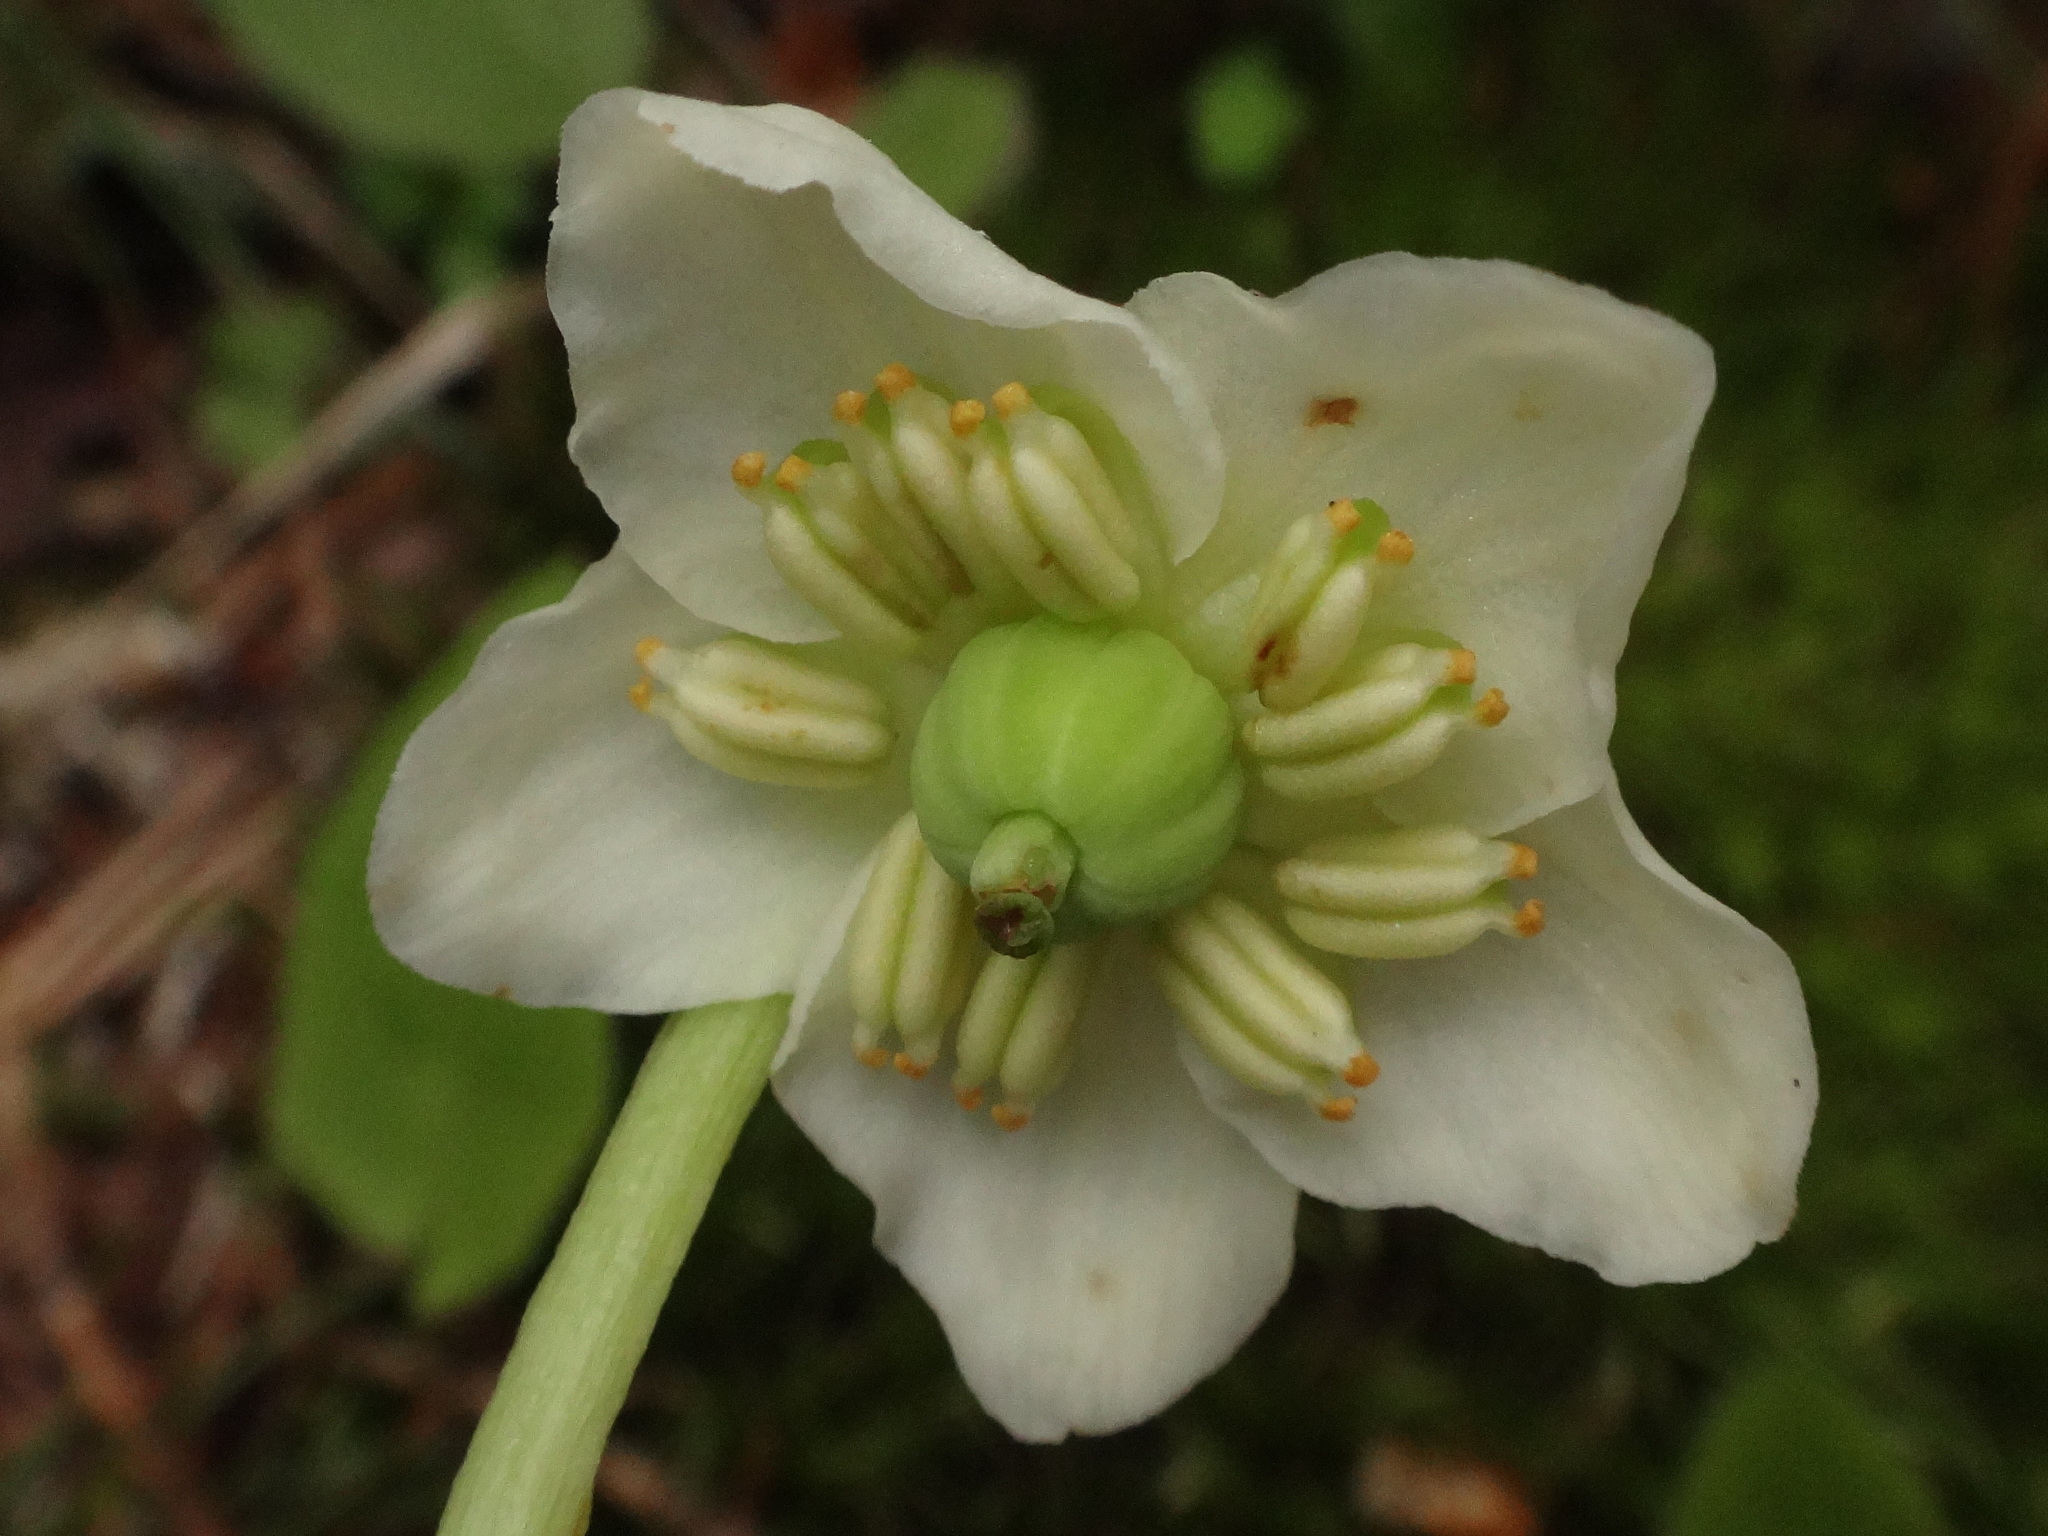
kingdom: Plantae
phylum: Tracheophyta
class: Magnoliopsida
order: Ericales
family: Ericaceae
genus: Moneses
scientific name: Moneses uniflora
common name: One-flowered wintergreen
